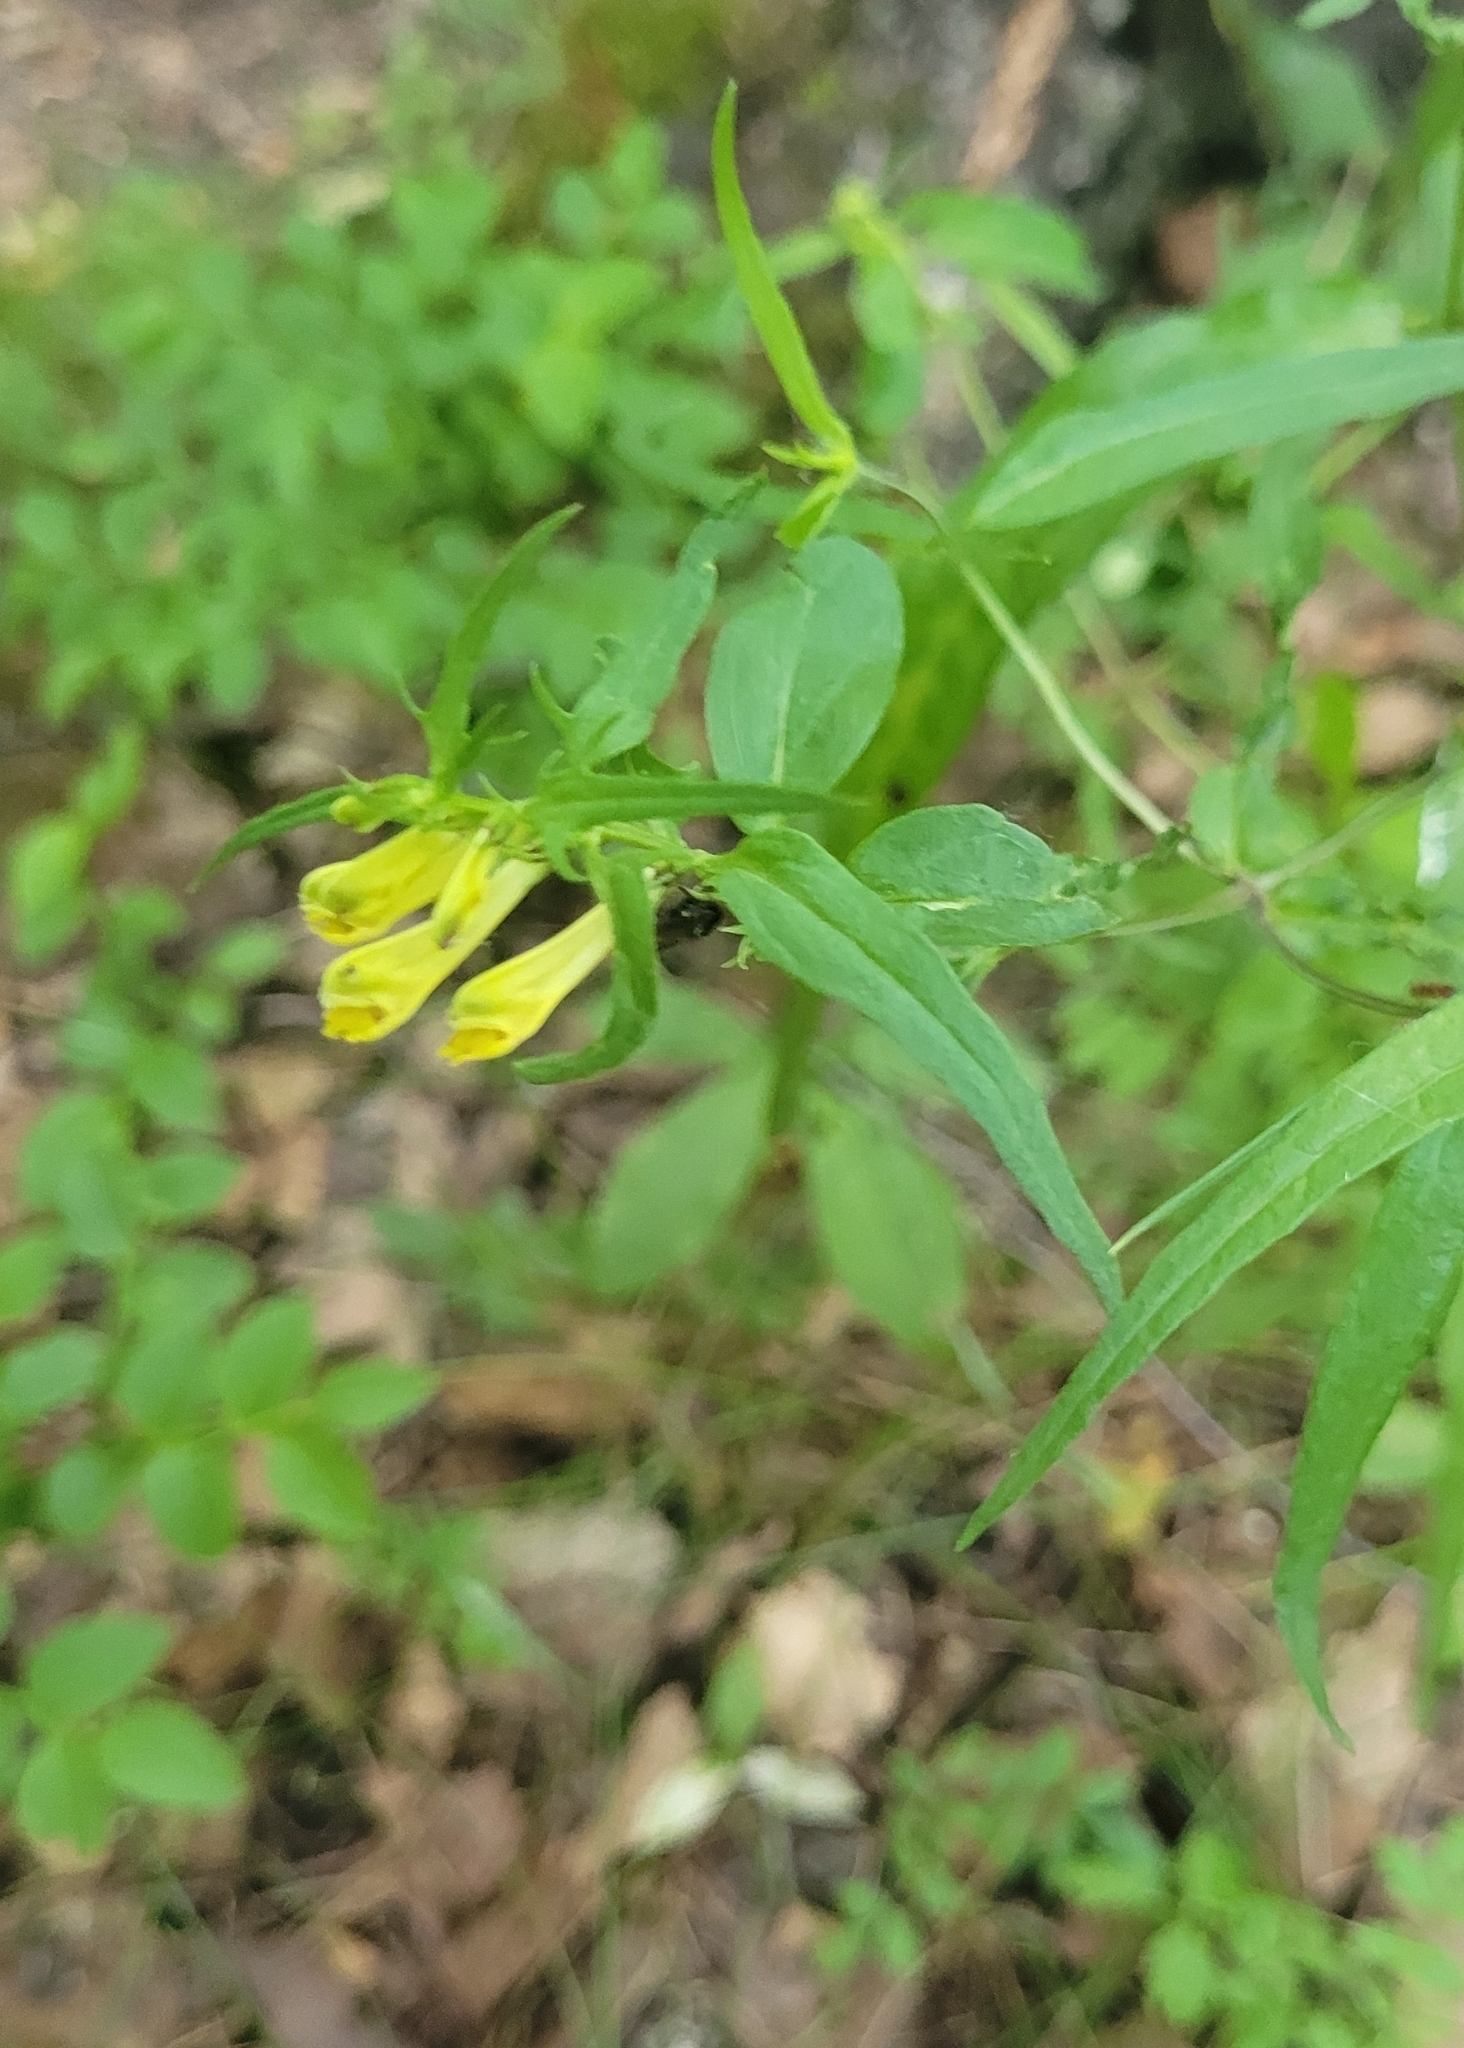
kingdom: Plantae
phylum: Tracheophyta
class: Magnoliopsida
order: Lamiales
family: Orobanchaceae
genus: Melampyrum
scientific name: Melampyrum pratense
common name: Common cow-wheat
